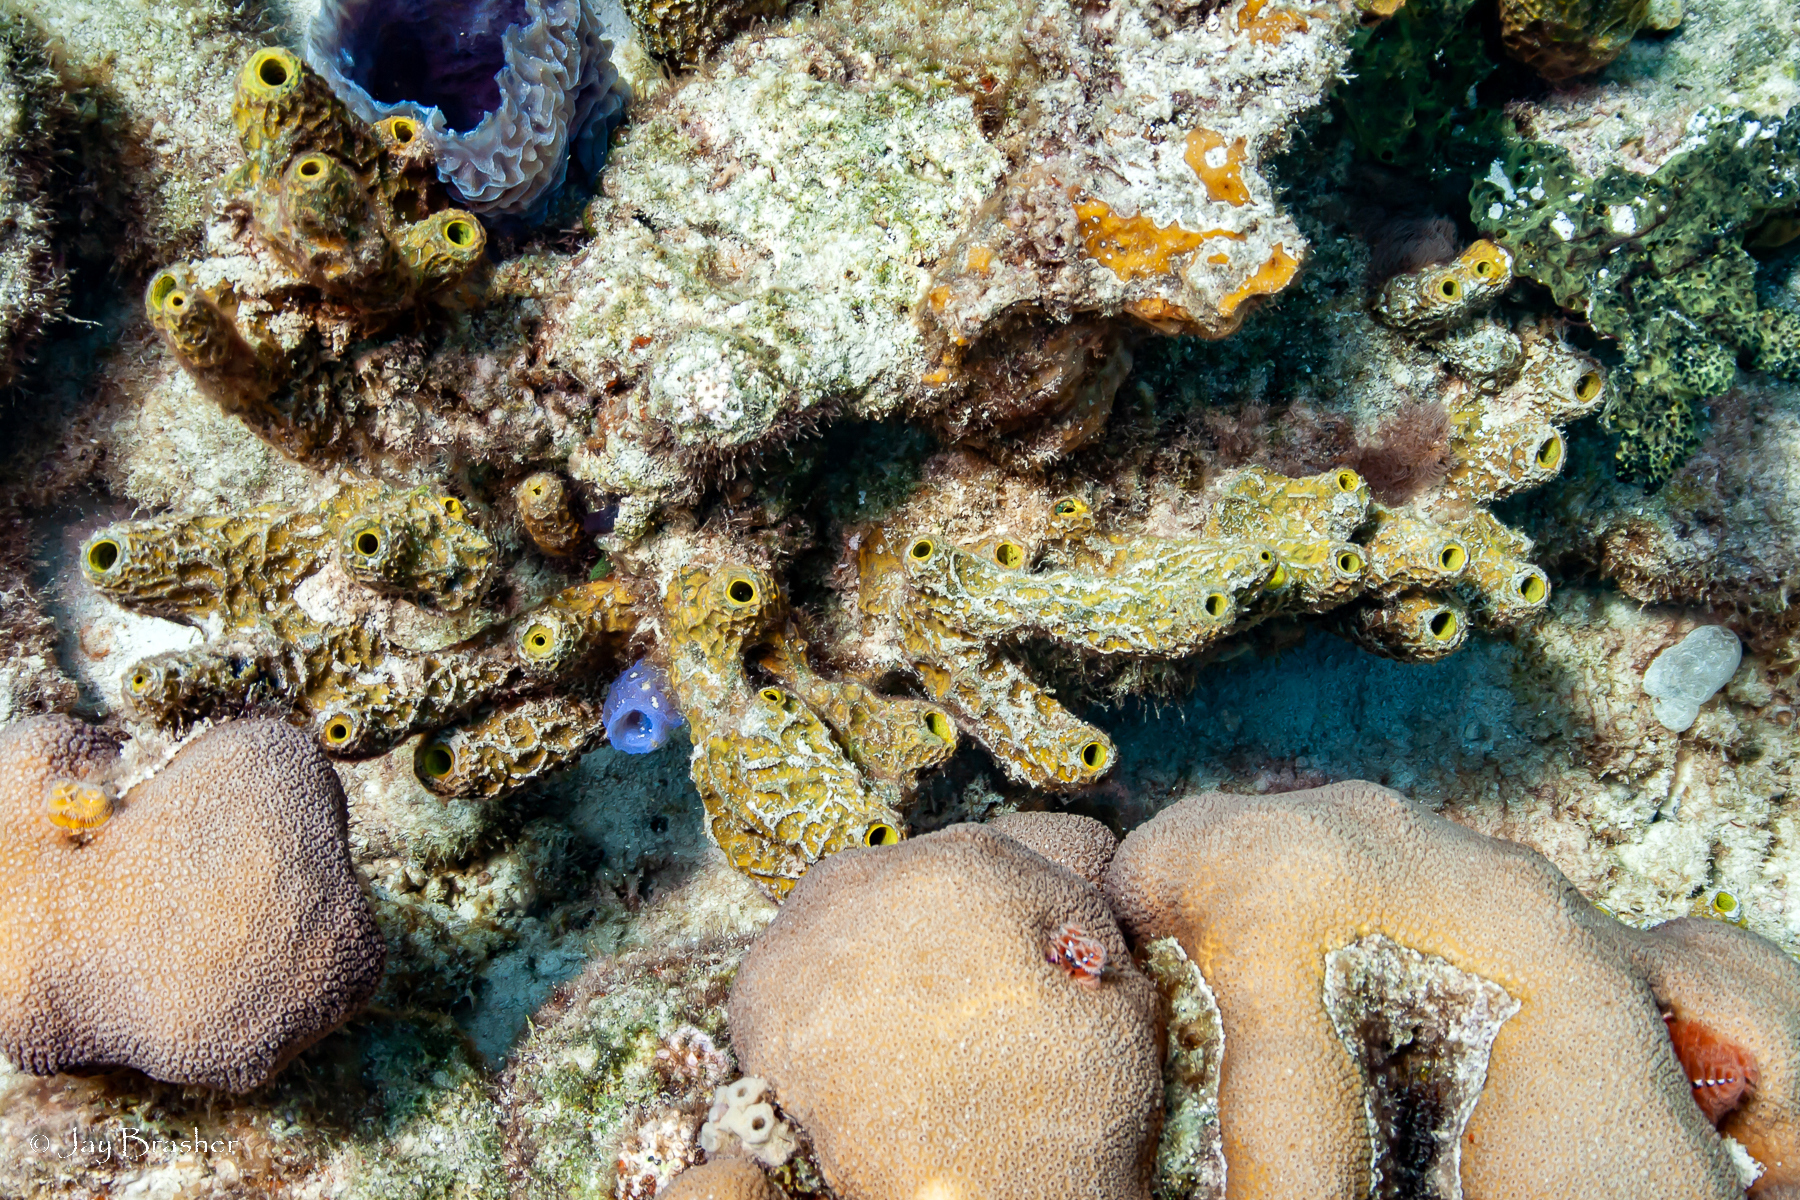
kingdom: Animalia
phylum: Porifera
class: Demospongiae
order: Verongiida
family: Aplysinidae
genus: Verongula
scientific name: Verongula rigida
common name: Pitted sponge
